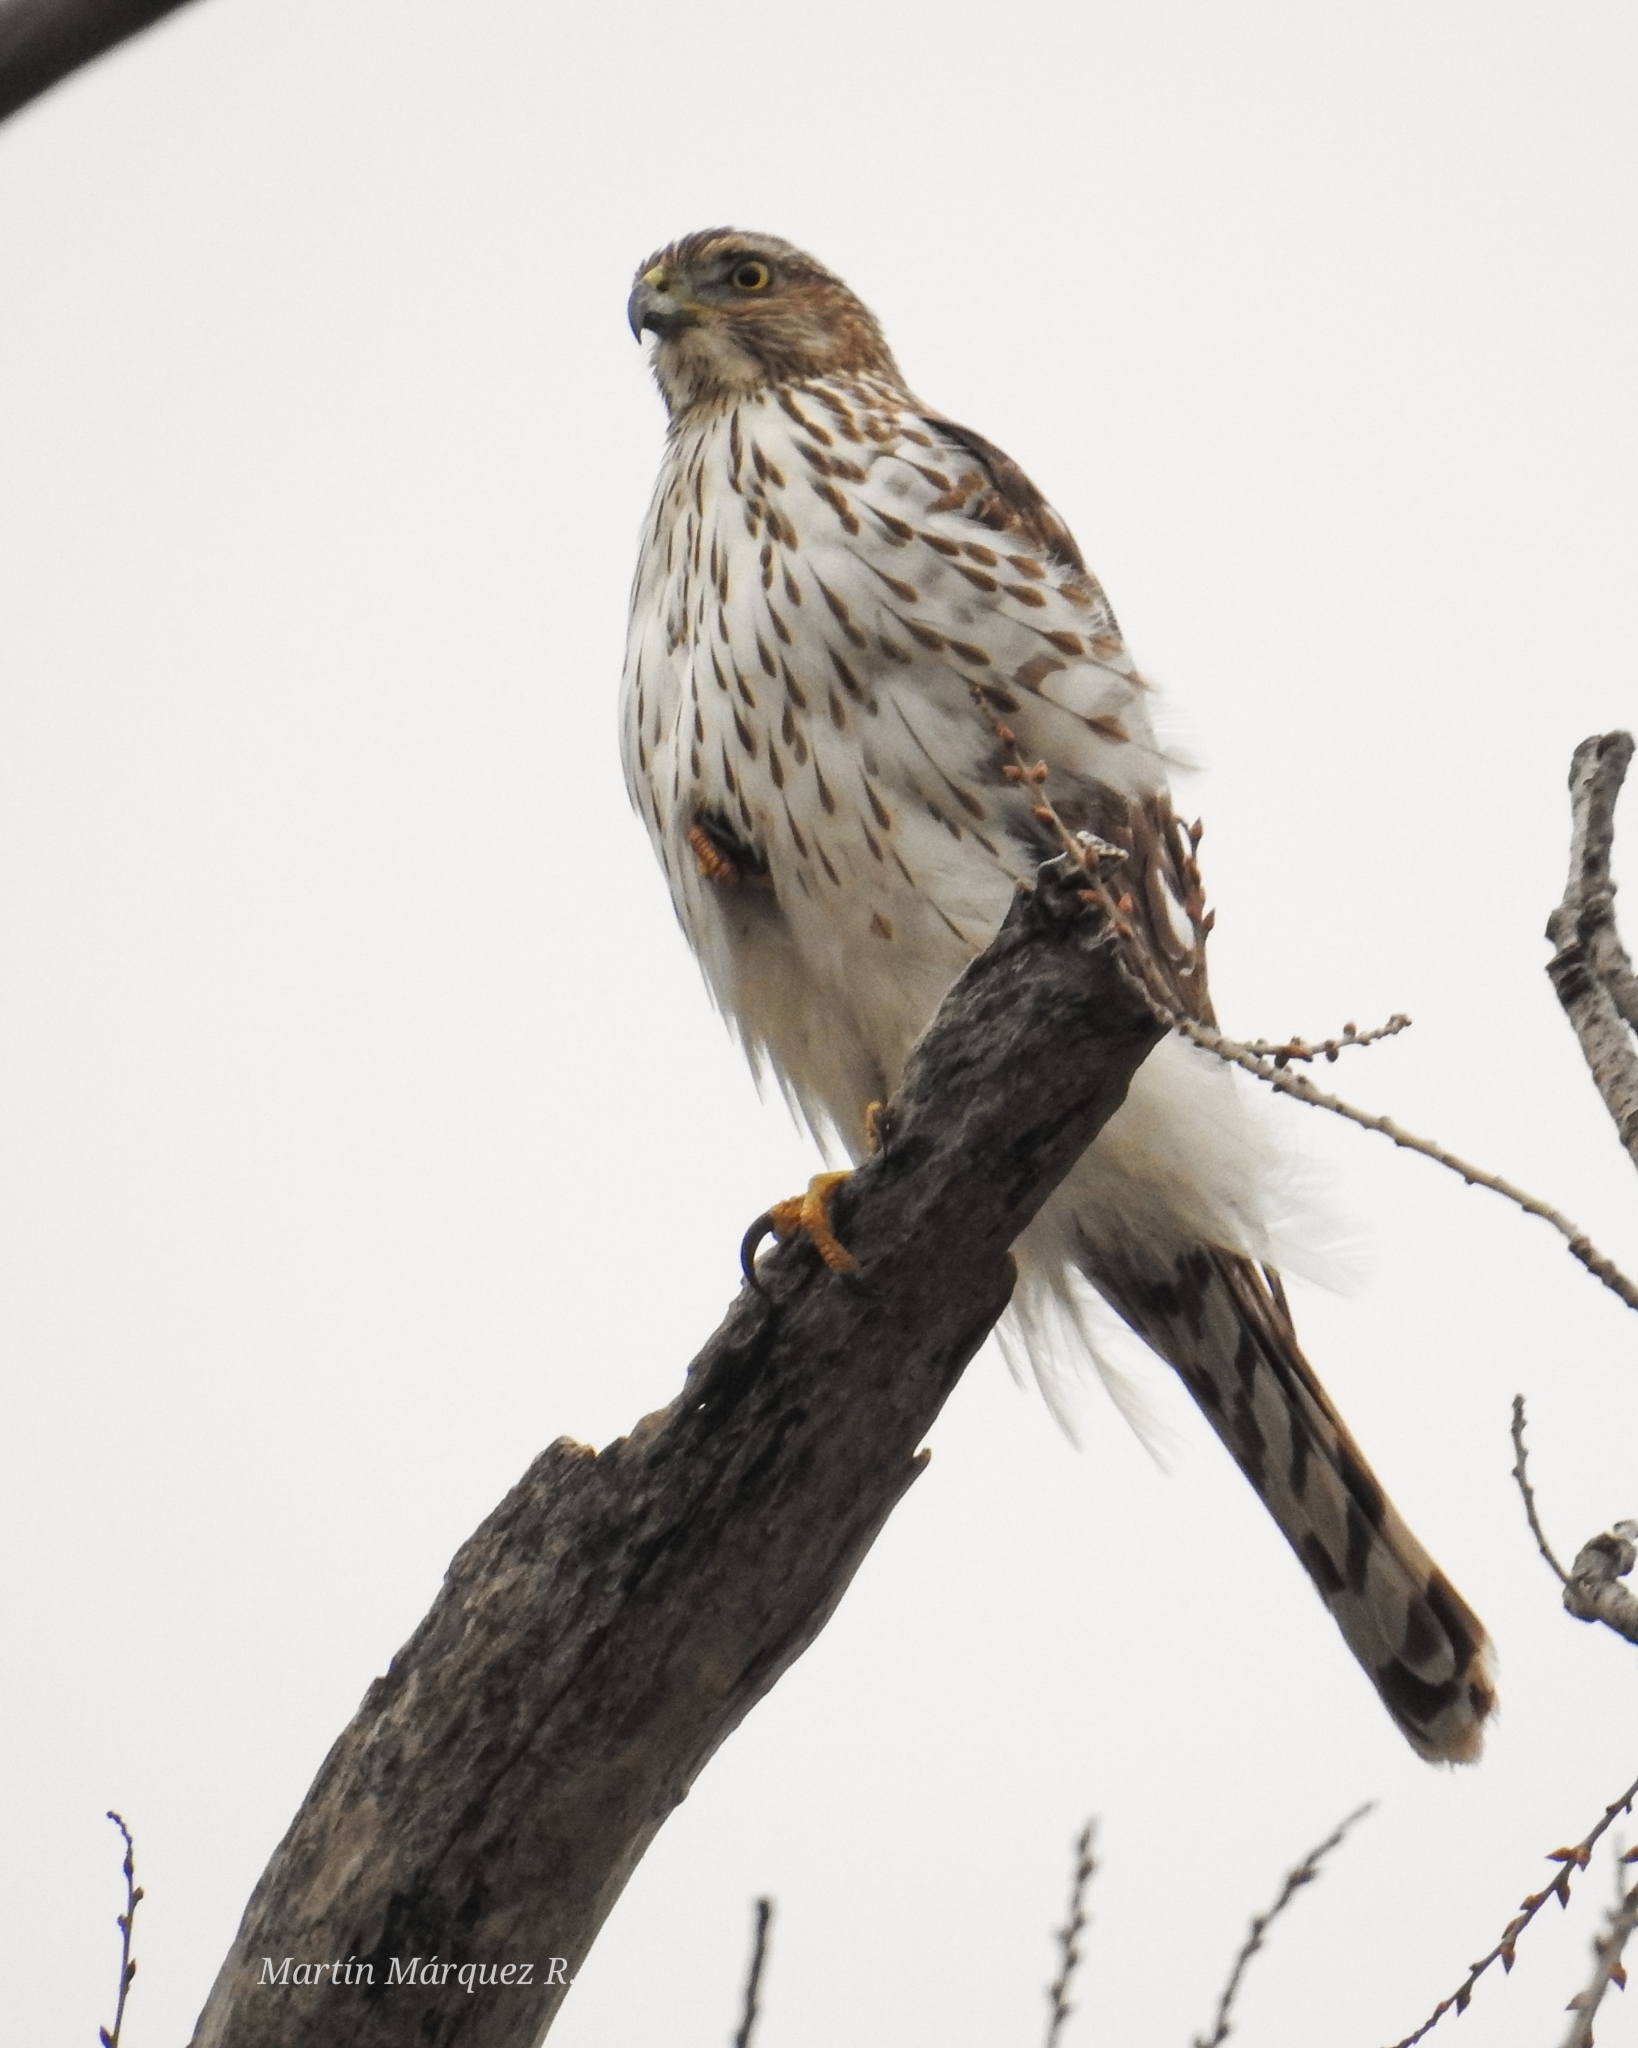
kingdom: Animalia
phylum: Chordata
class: Aves
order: Accipitriformes
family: Accipitridae
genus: Accipiter
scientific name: Accipiter cooperii
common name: Cooper's hawk
